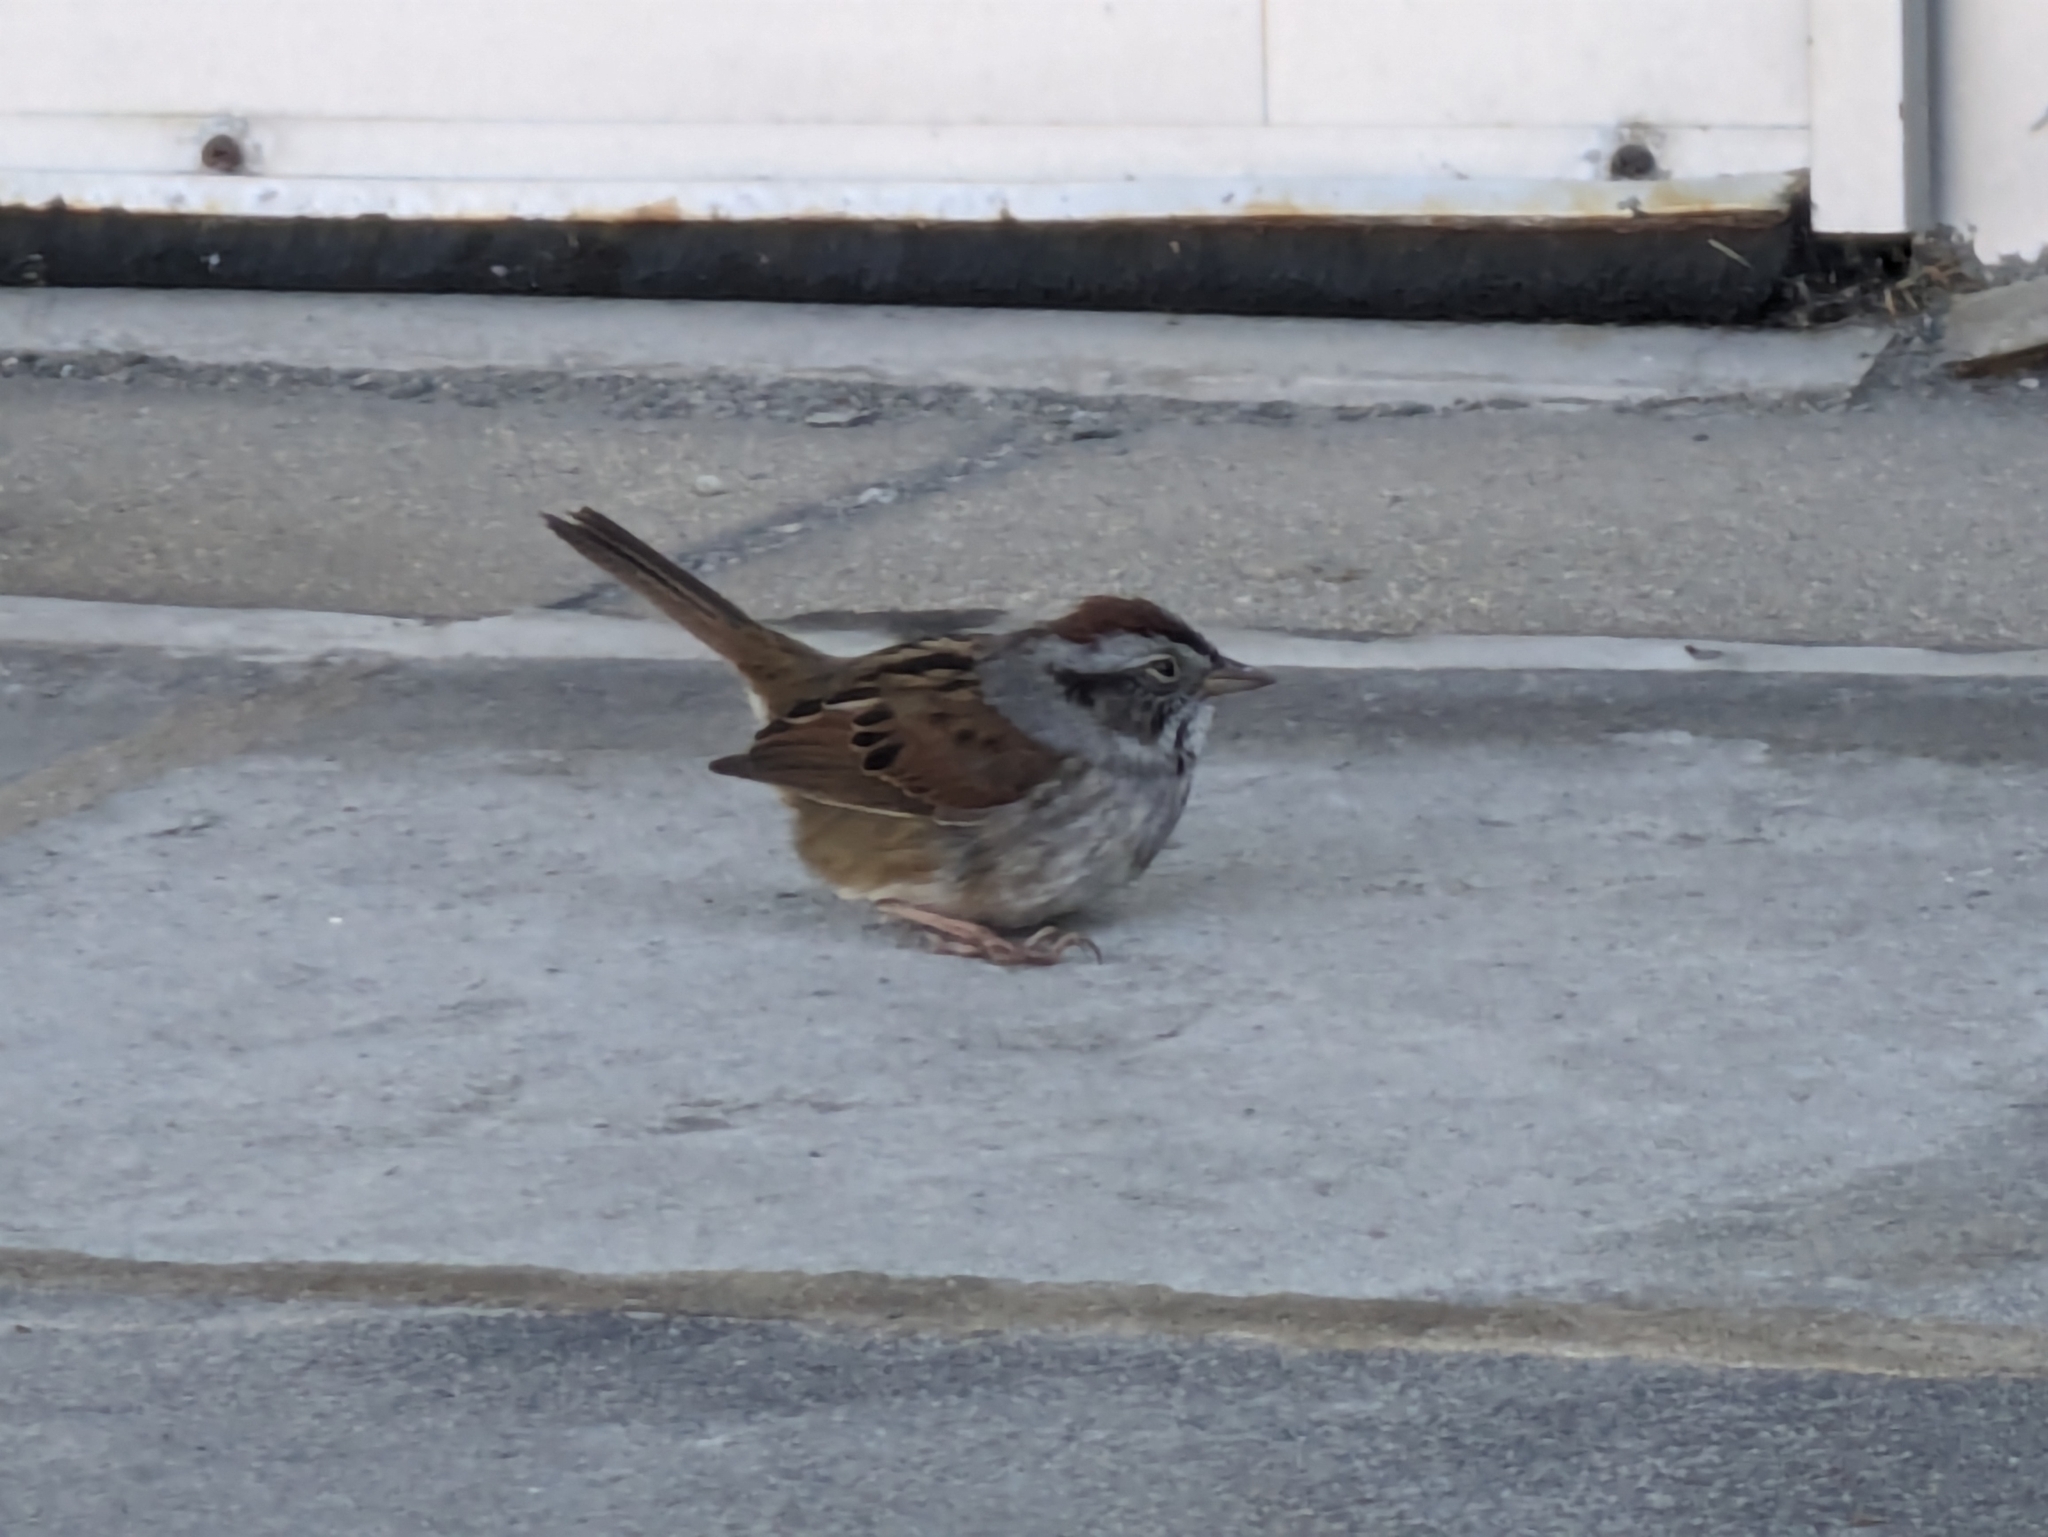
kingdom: Animalia
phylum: Chordata
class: Aves
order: Passeriformes
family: Passerellidae
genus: Melospiza
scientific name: Melospiza georgiana
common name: Swamp sparrow
